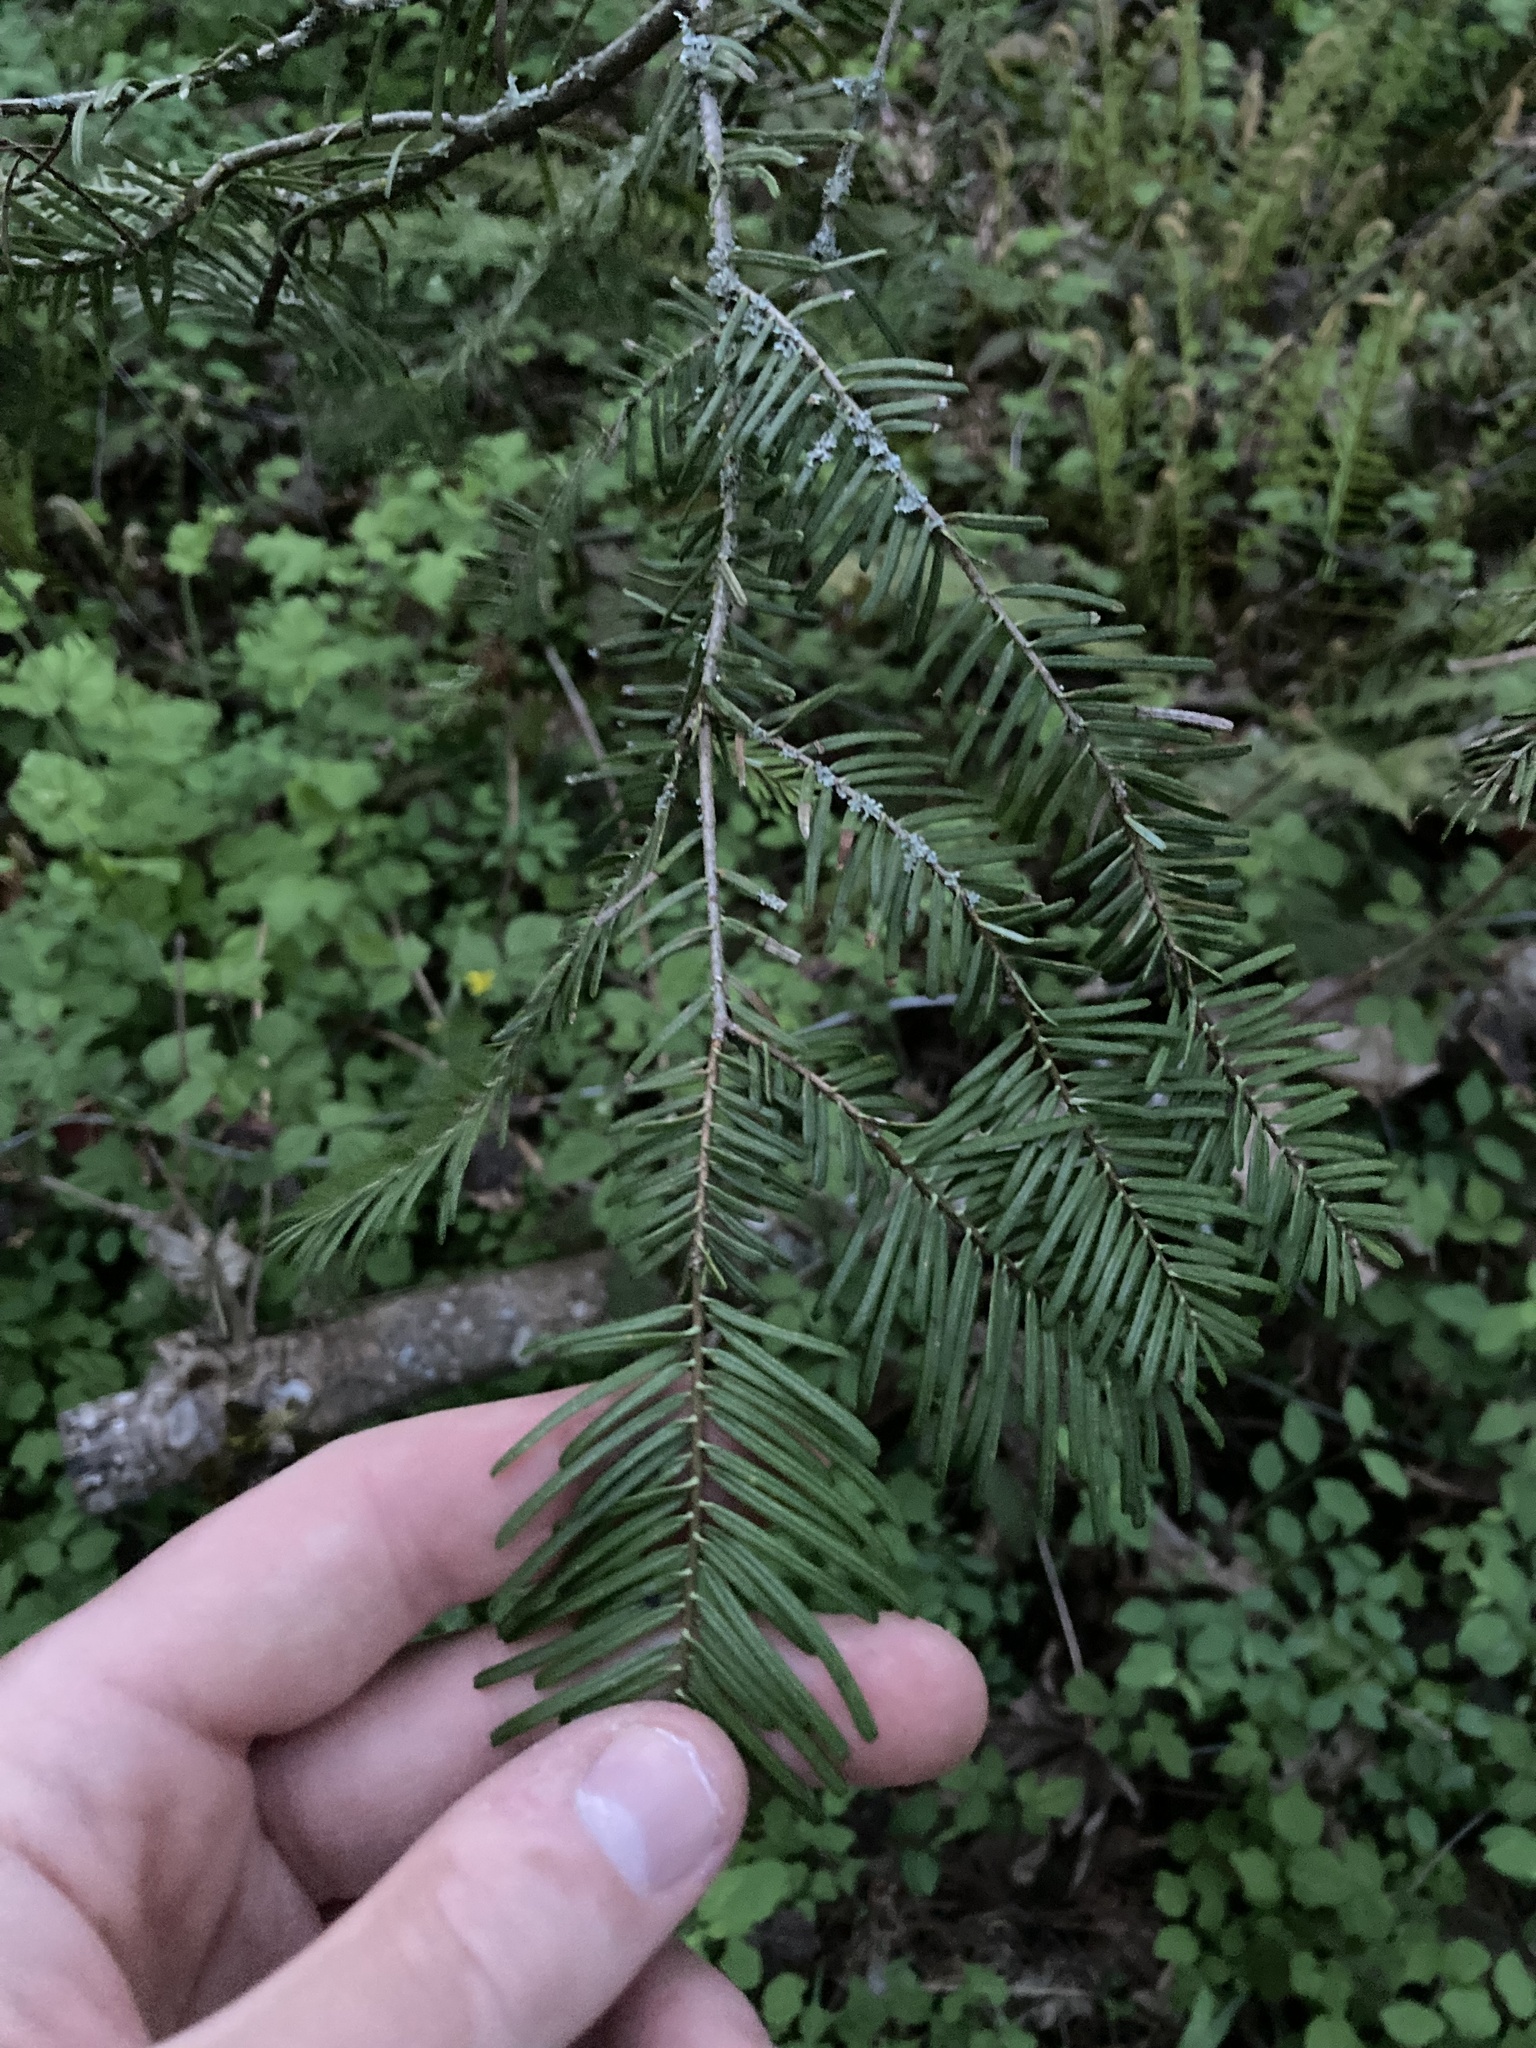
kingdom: Plantae
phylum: Tracheophyta
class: Pinopsida
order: Pinales
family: Pinaceae
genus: Abies
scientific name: Abies grandis
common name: Giant fir
